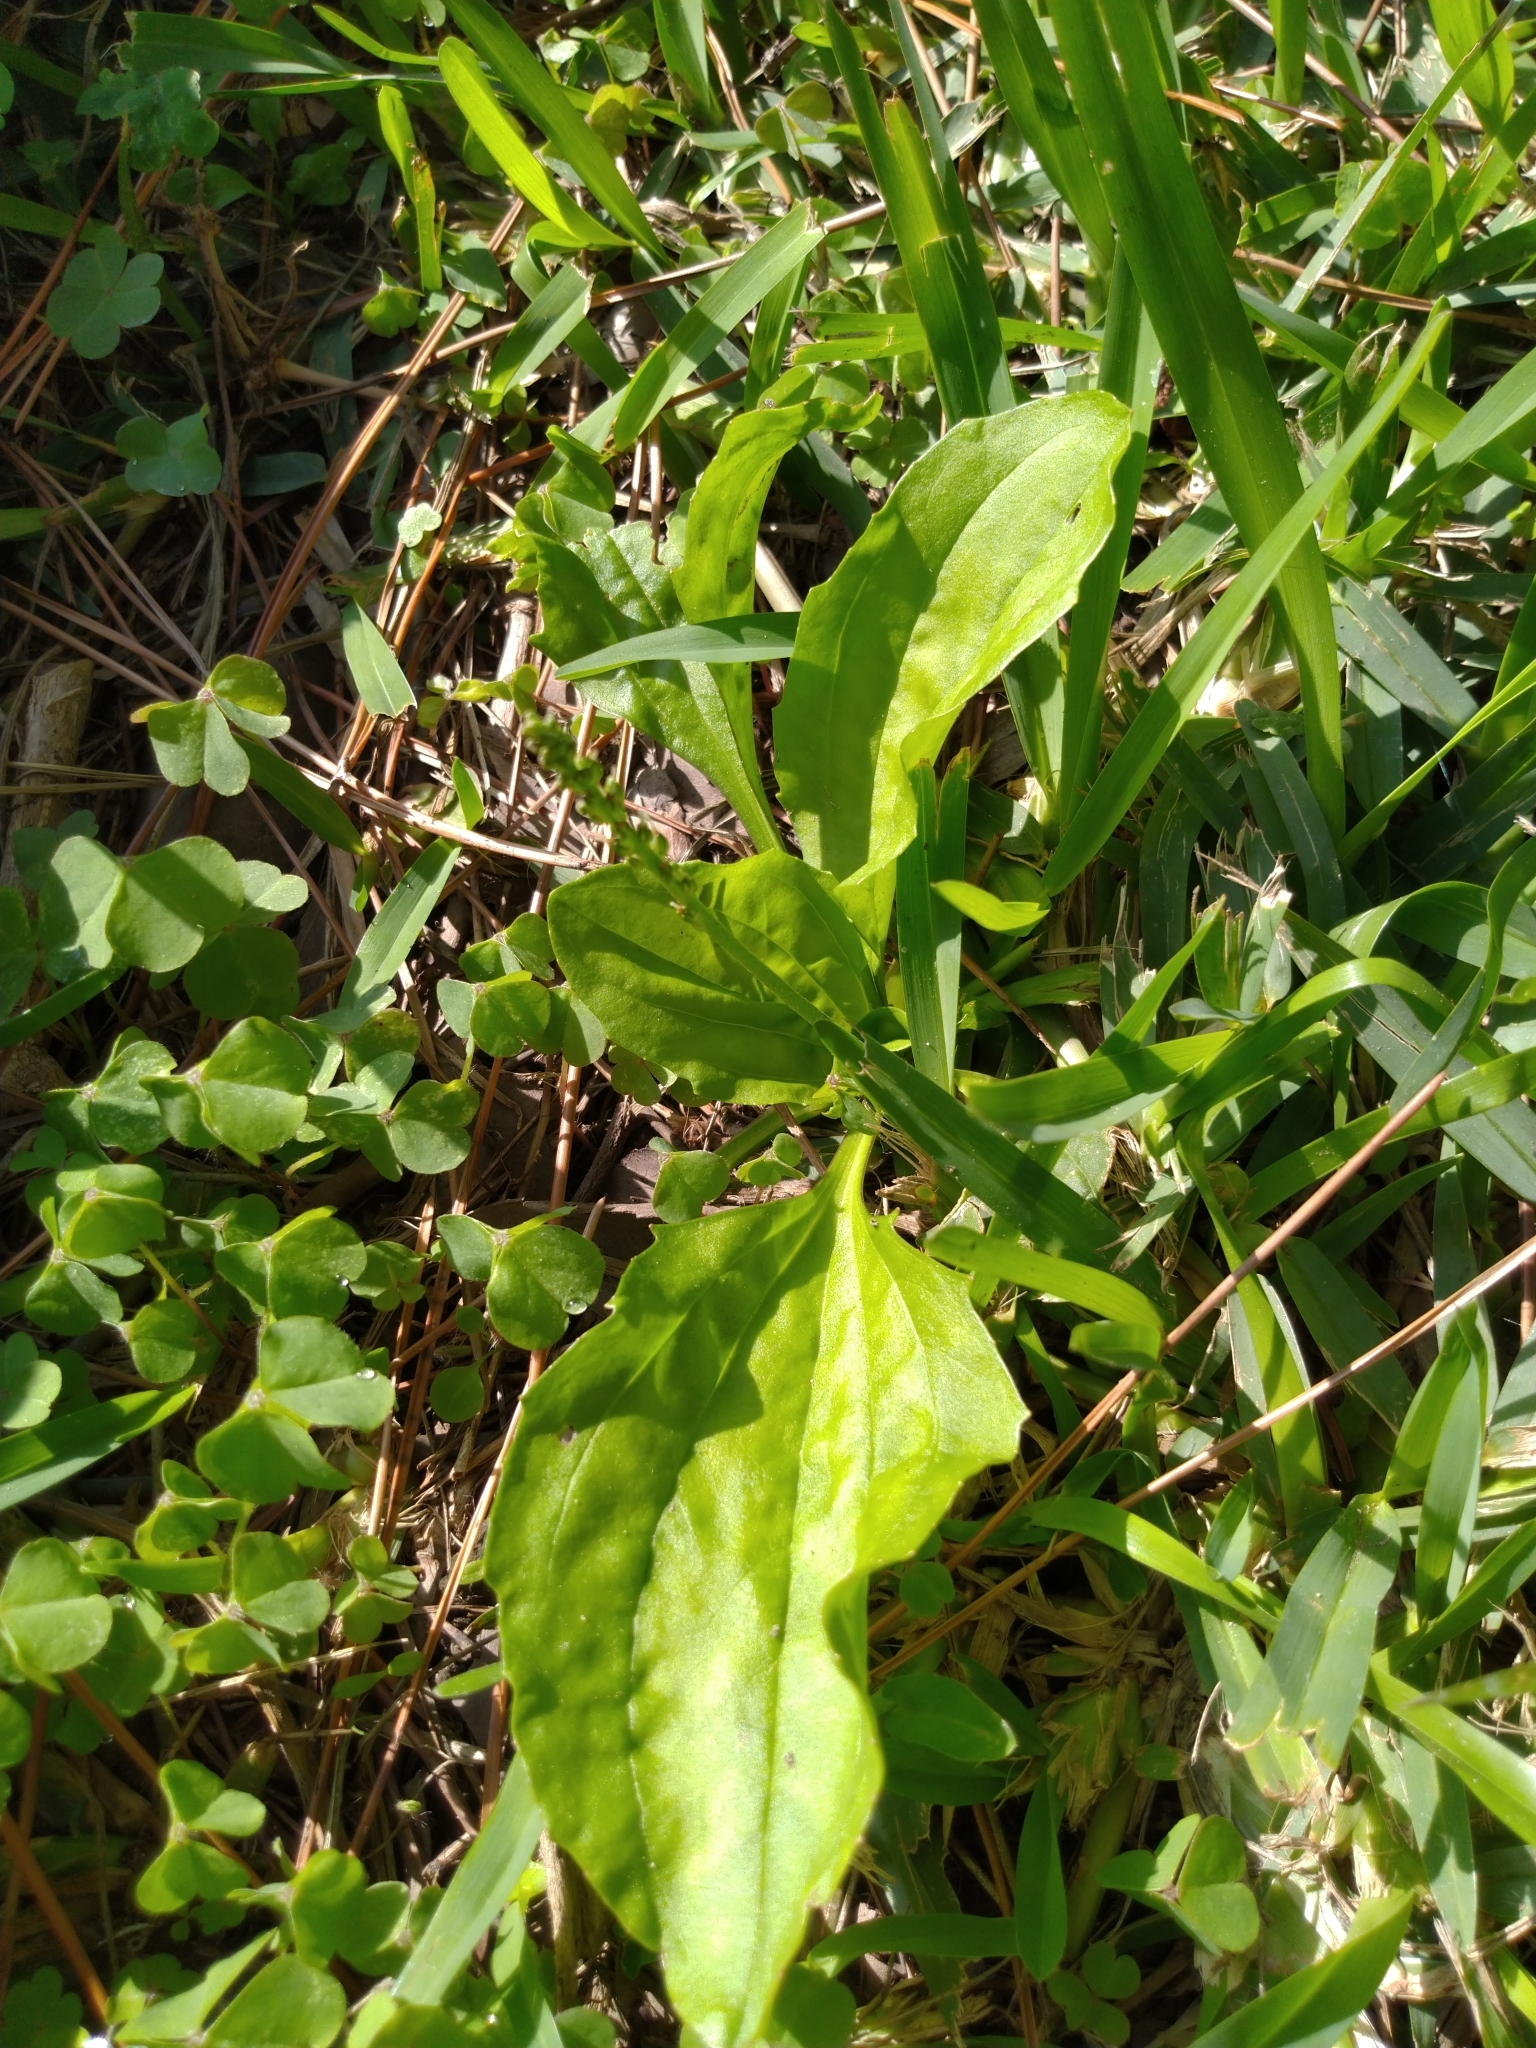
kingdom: Plantae
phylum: Tracheophyta
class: Magnoliopsida
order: Lamiales
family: Plantaginaceae
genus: Plantago
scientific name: Plantago asiatica
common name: Psyllium
